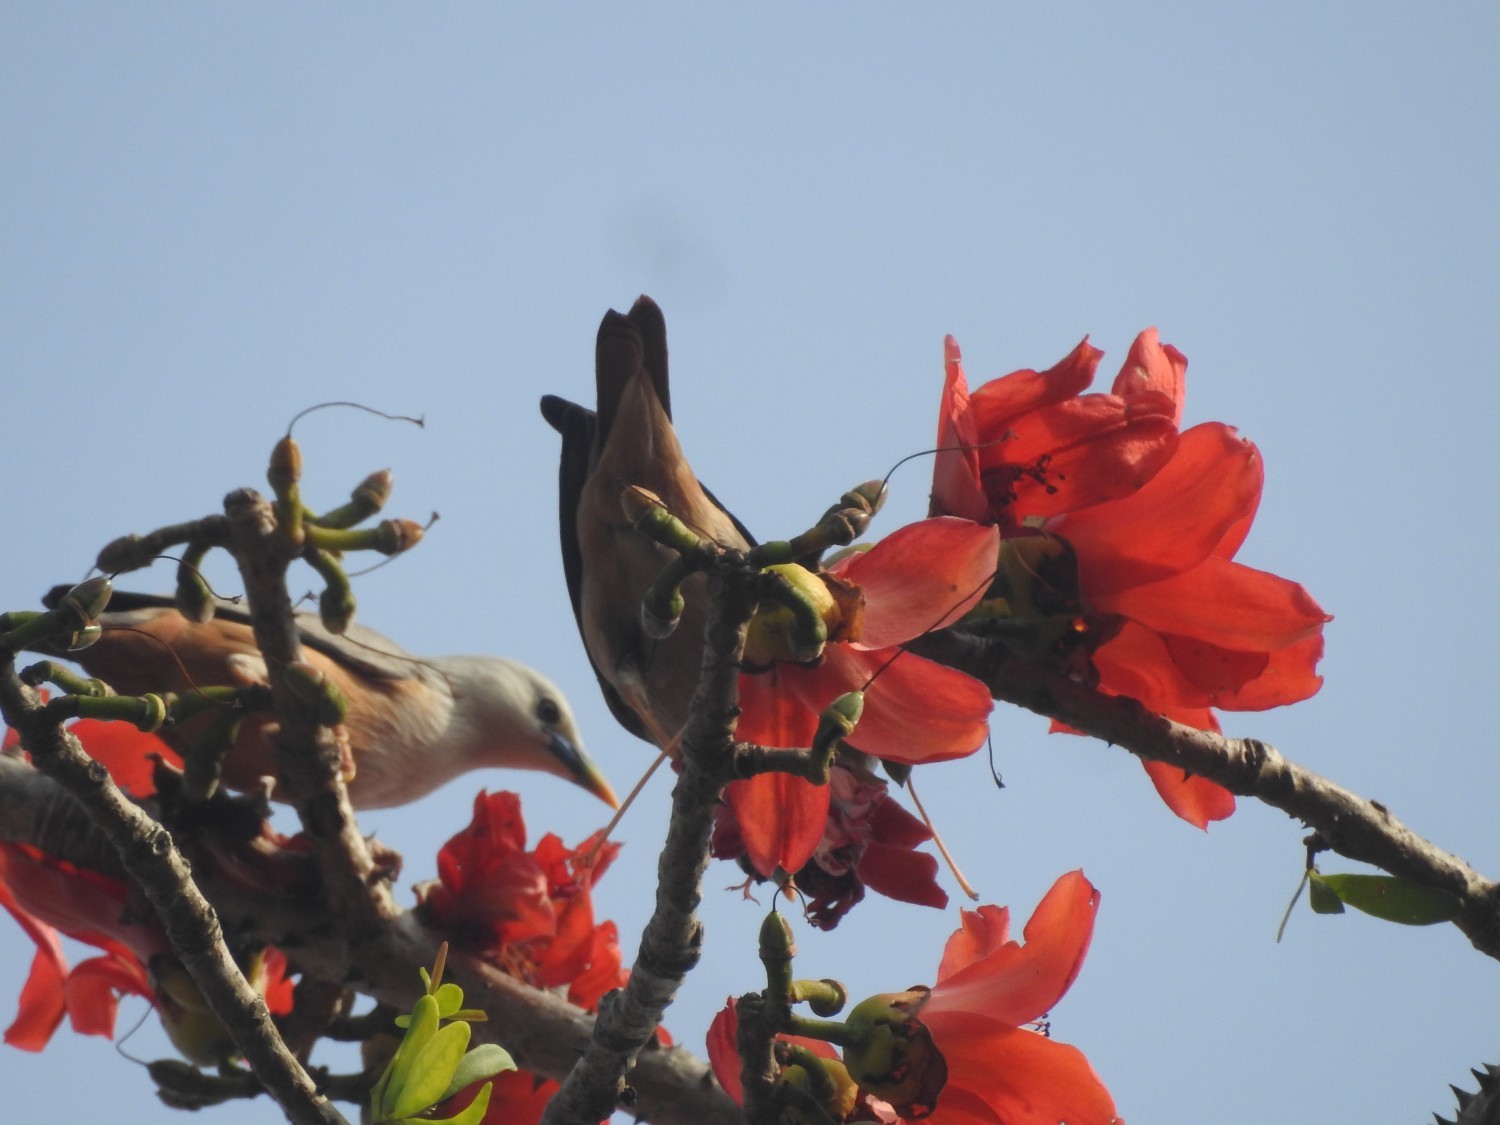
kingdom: Animalia
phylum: Chordata
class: Aves
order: Passeriformes
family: Sturnidae
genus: Sturnia
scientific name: Sturnia blythii
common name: Malabar starling
